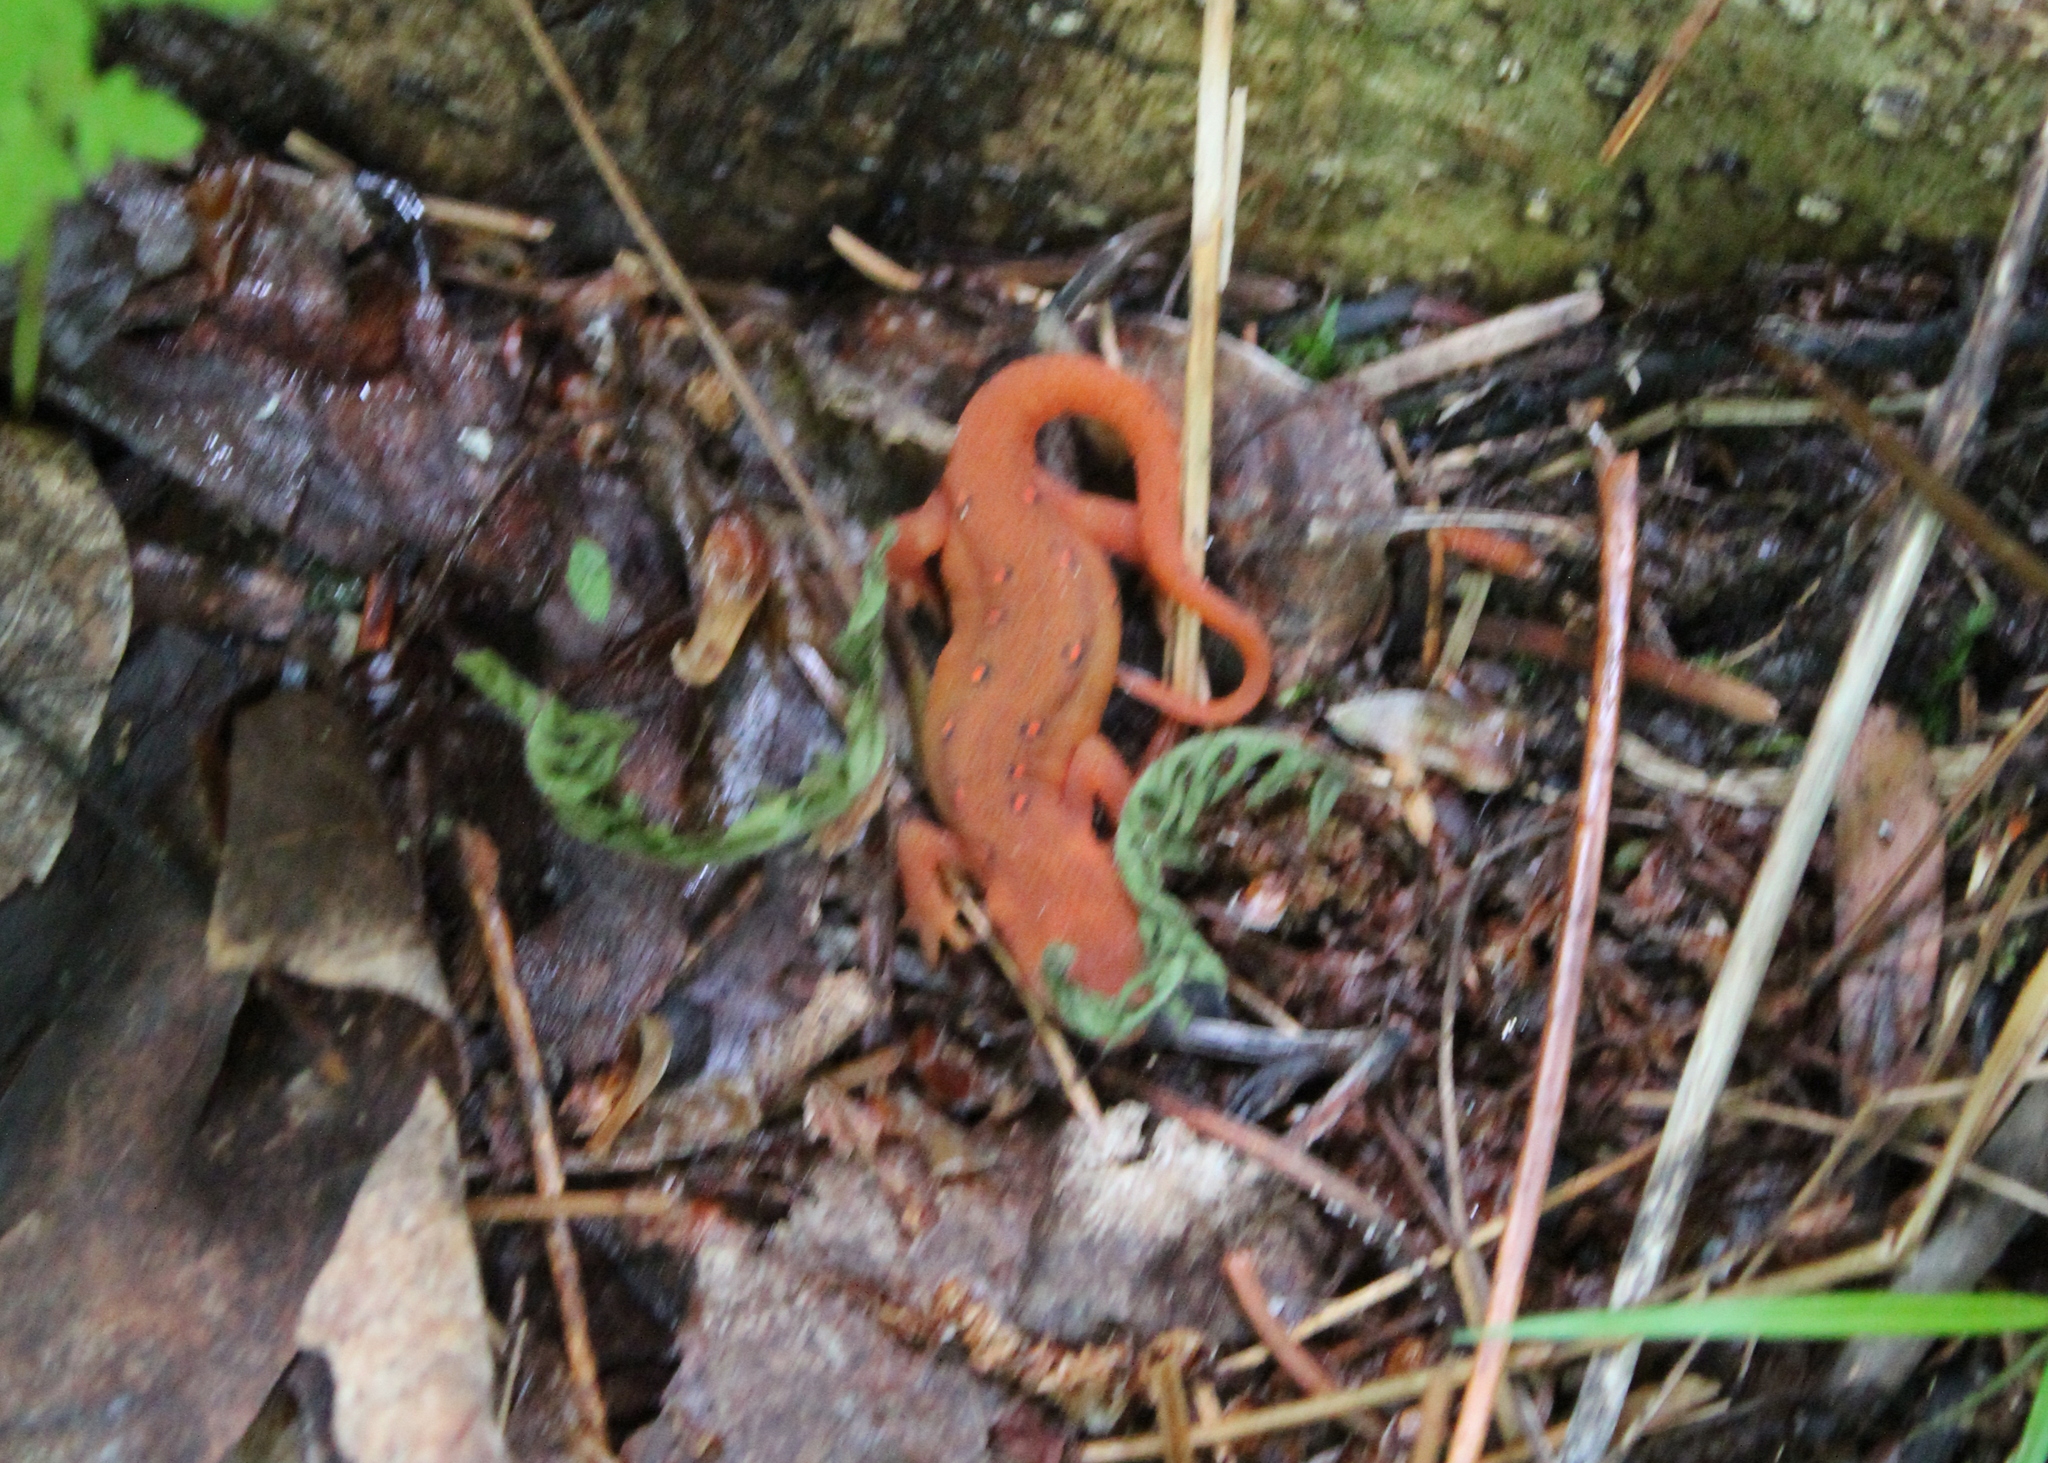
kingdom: Animalia
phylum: Chordata
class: Amphibia
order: Caudata
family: Salamandridae
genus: Notophthalmus
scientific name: Notophthalmus viridescens
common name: Eastern newt
